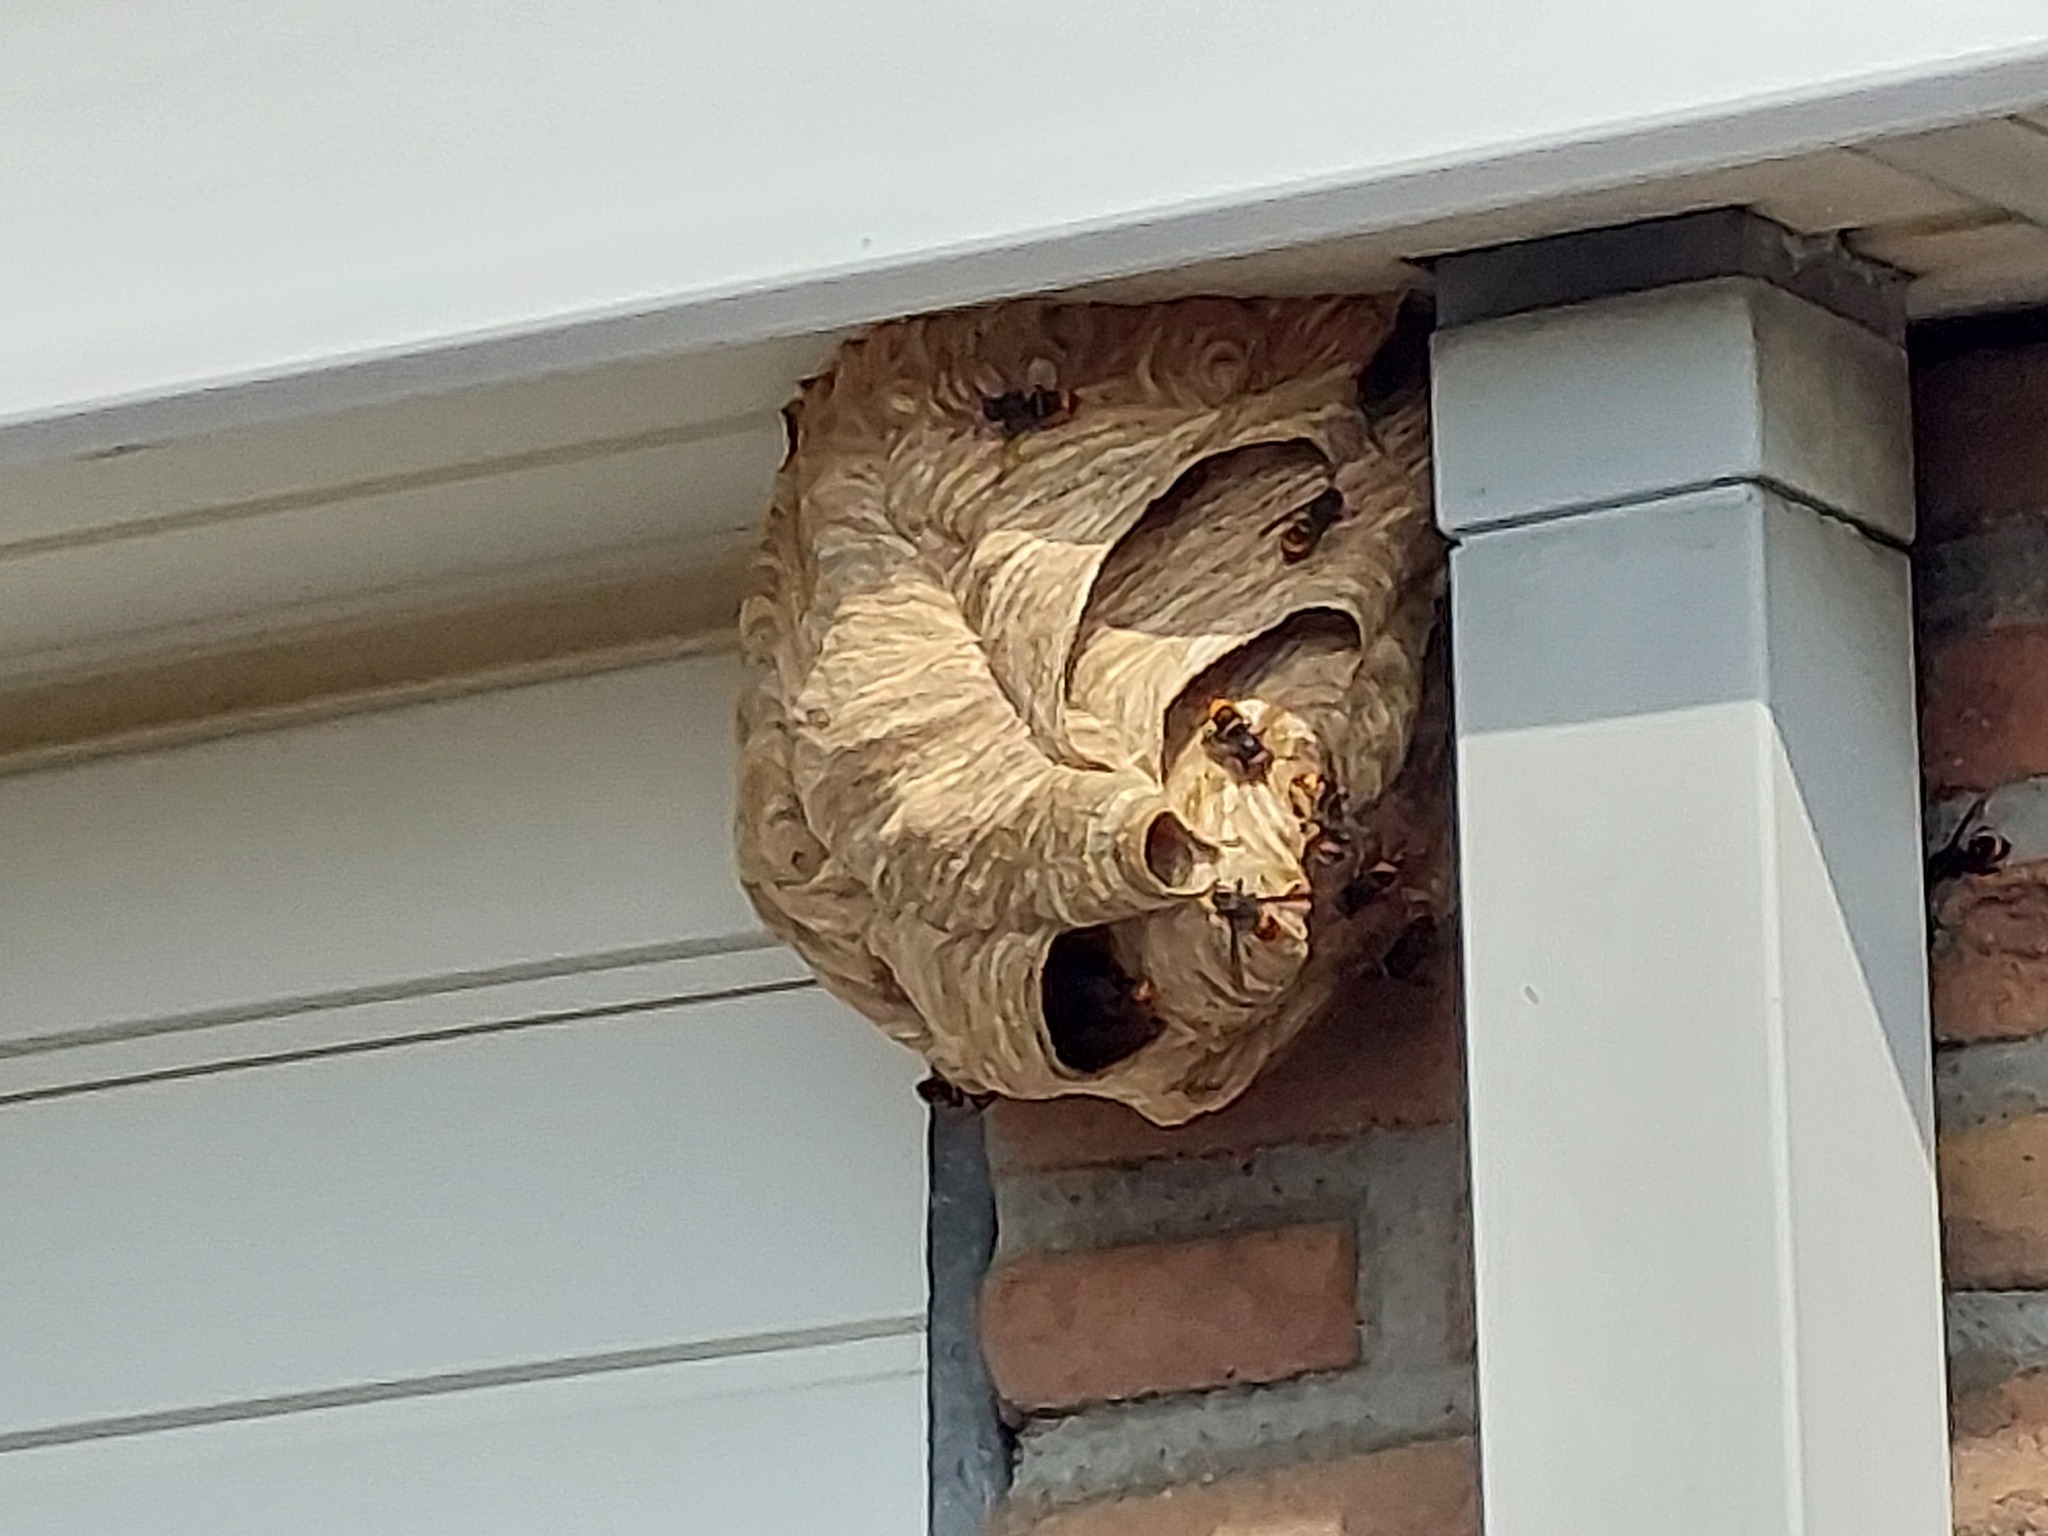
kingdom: Animalia
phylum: Arthropoda
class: Insecta
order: Hymenoptera
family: Vespidae
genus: Vespa
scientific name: Vespa velutina
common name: Asian hornet
